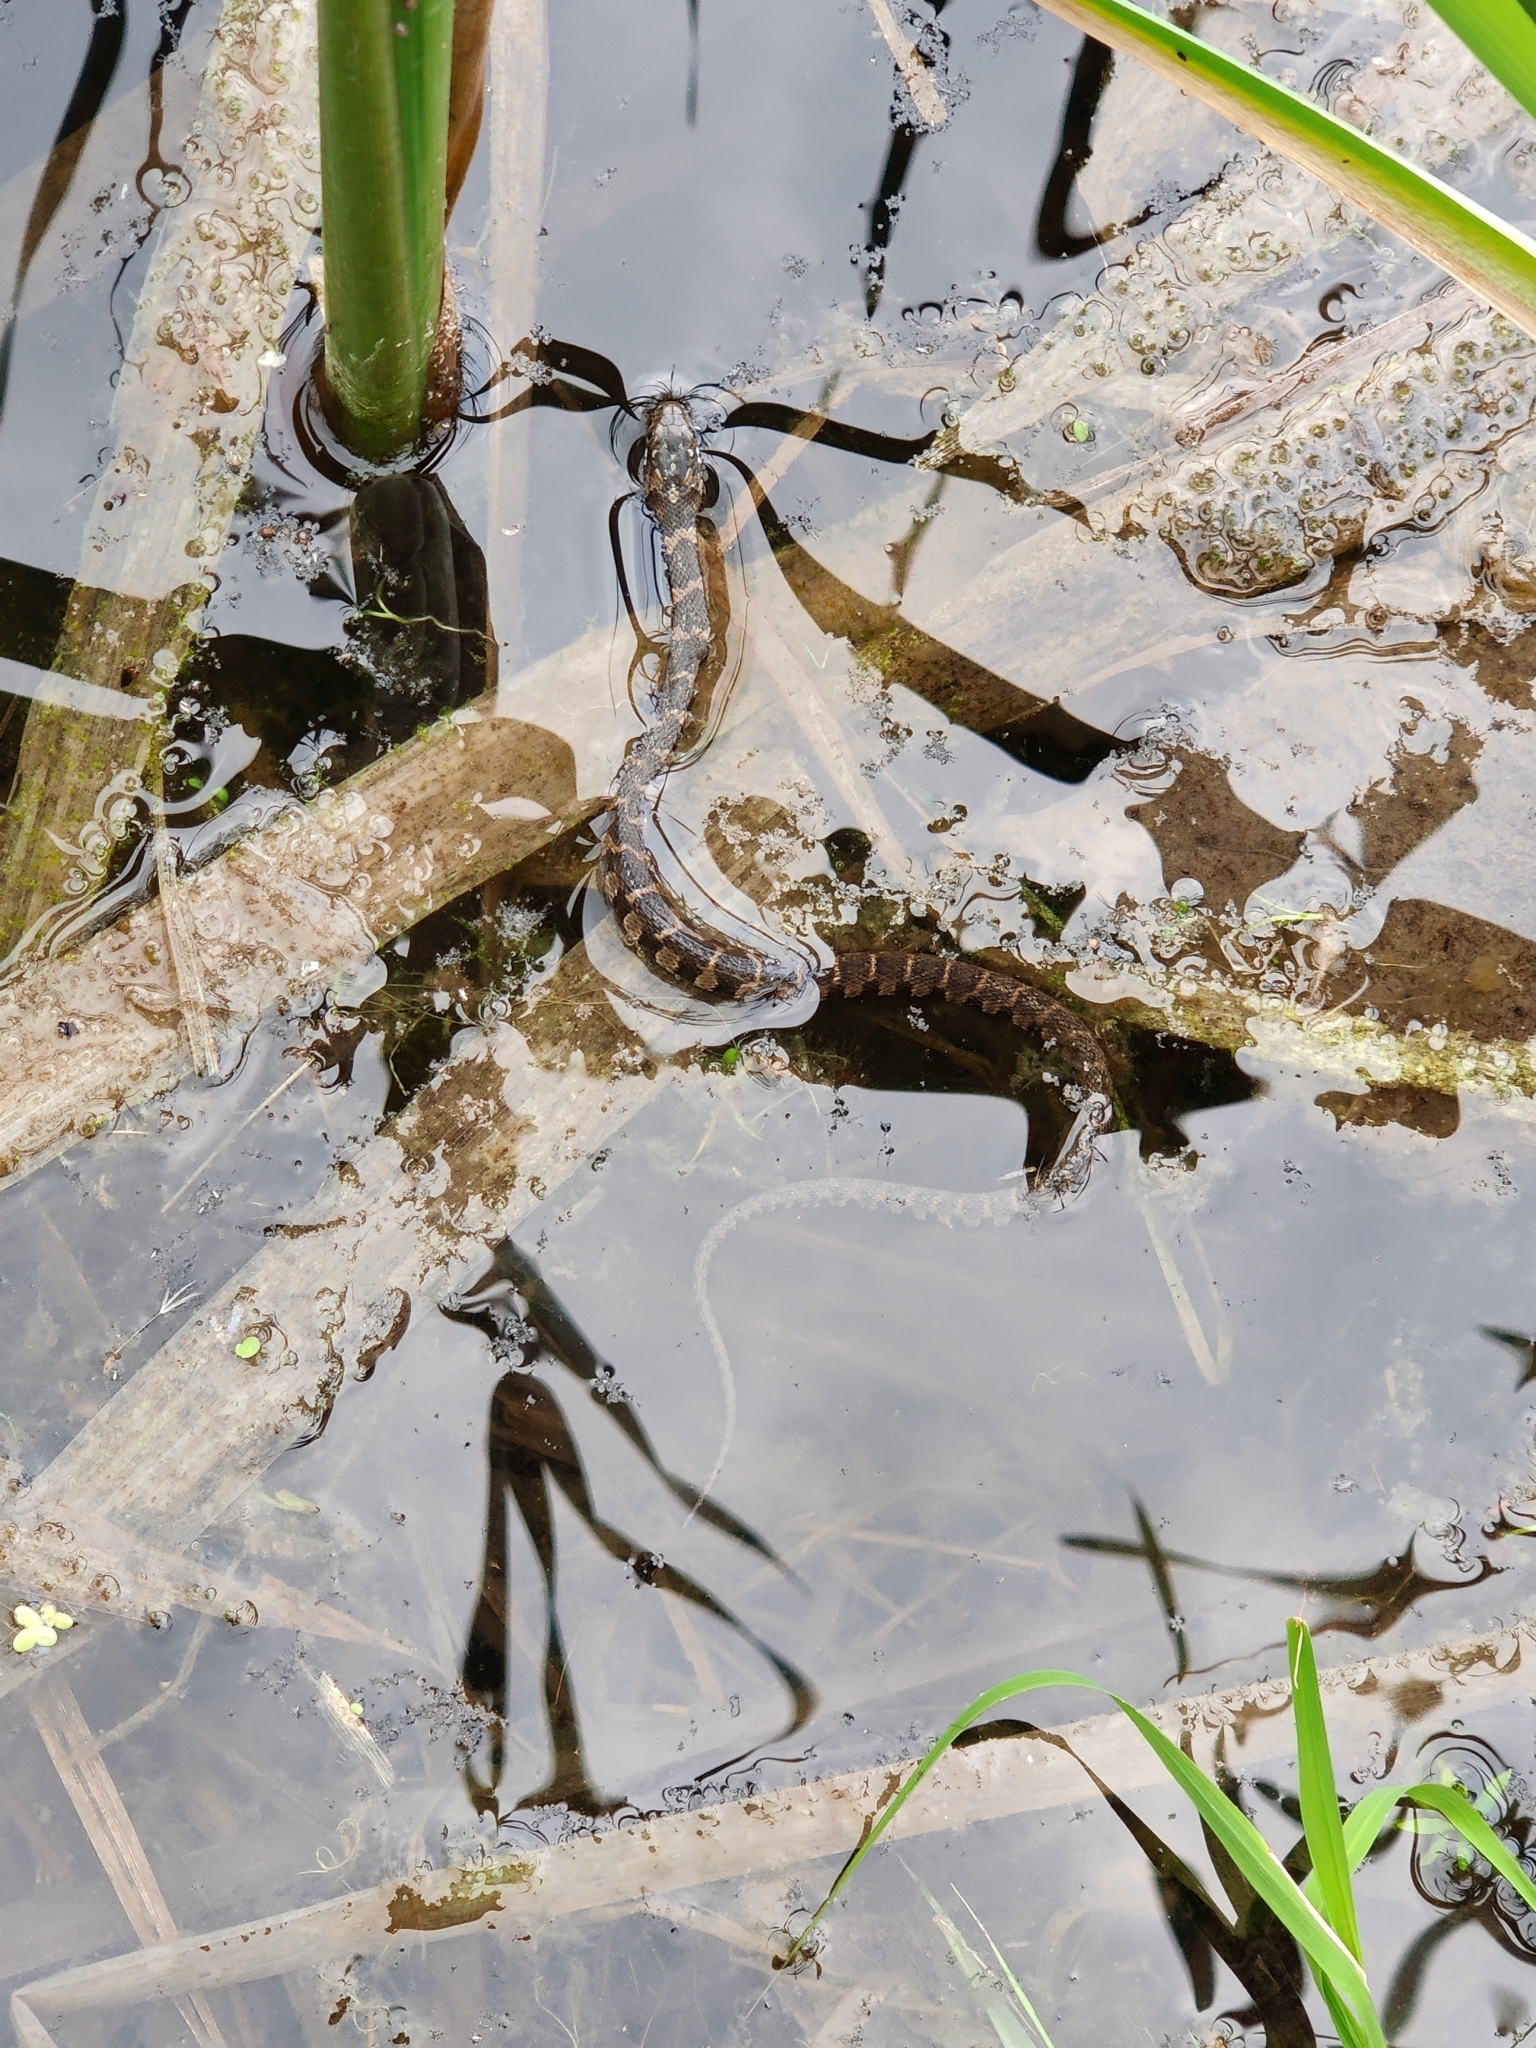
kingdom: Animalia
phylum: Chordata
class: Squamata
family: Colubridae
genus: Nerodia
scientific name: Nerodia sipedon
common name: Northern water snake
